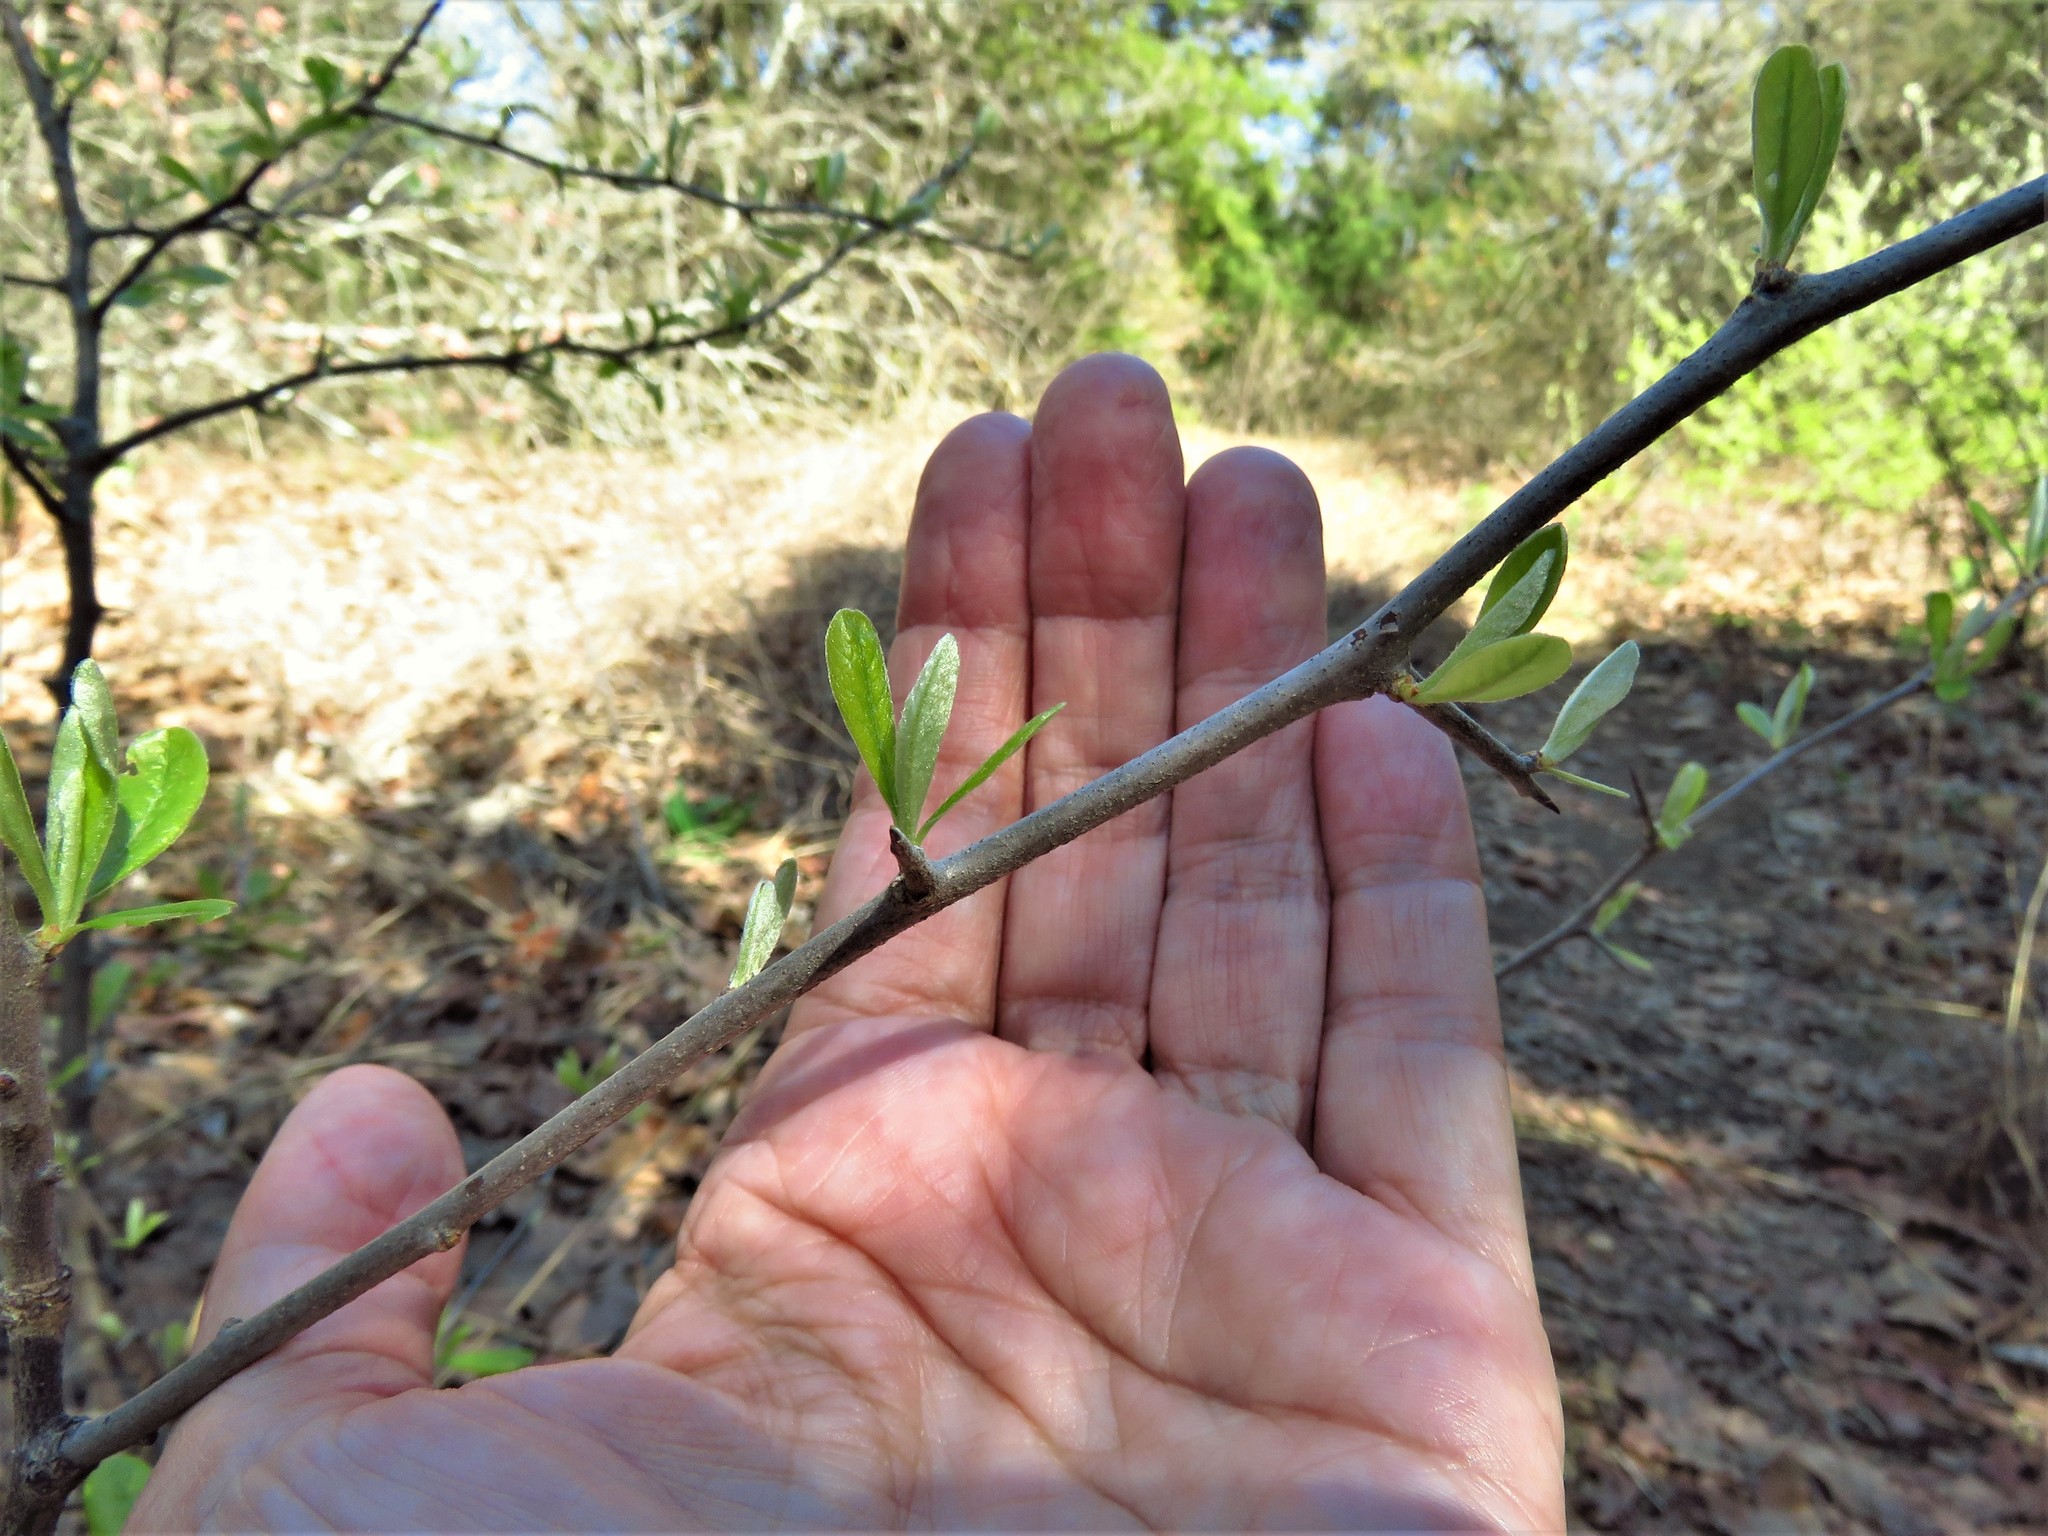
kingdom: Plantae
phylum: Tracheophyta
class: Magnoliopsida
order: Ericales
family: Sapotaceae
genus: Sideroxylon
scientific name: Sideroxylon lanuginosum
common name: Chittamwood
